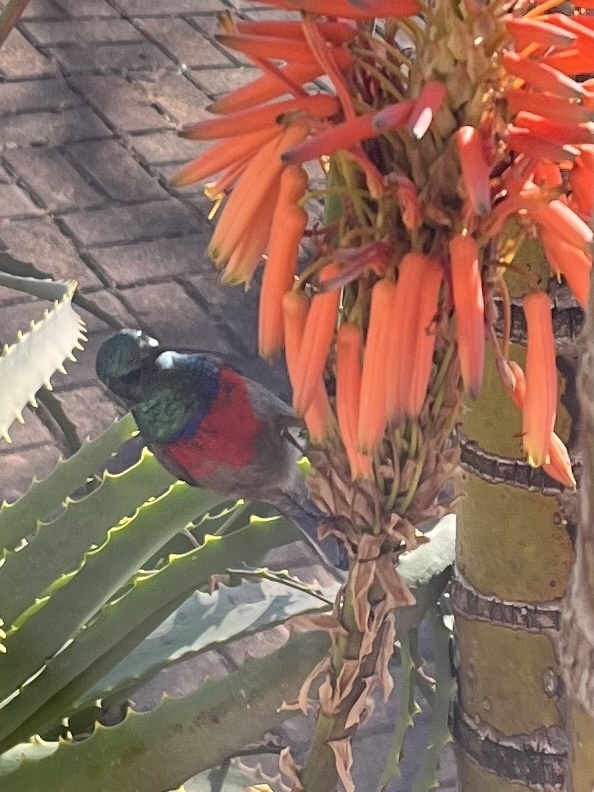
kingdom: Animalia
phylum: Chordata
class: Aves
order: Passeriformes
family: Nectariniidae
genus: Cinnyris
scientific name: Cinnyris afer
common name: Greater double-collared sunbird
